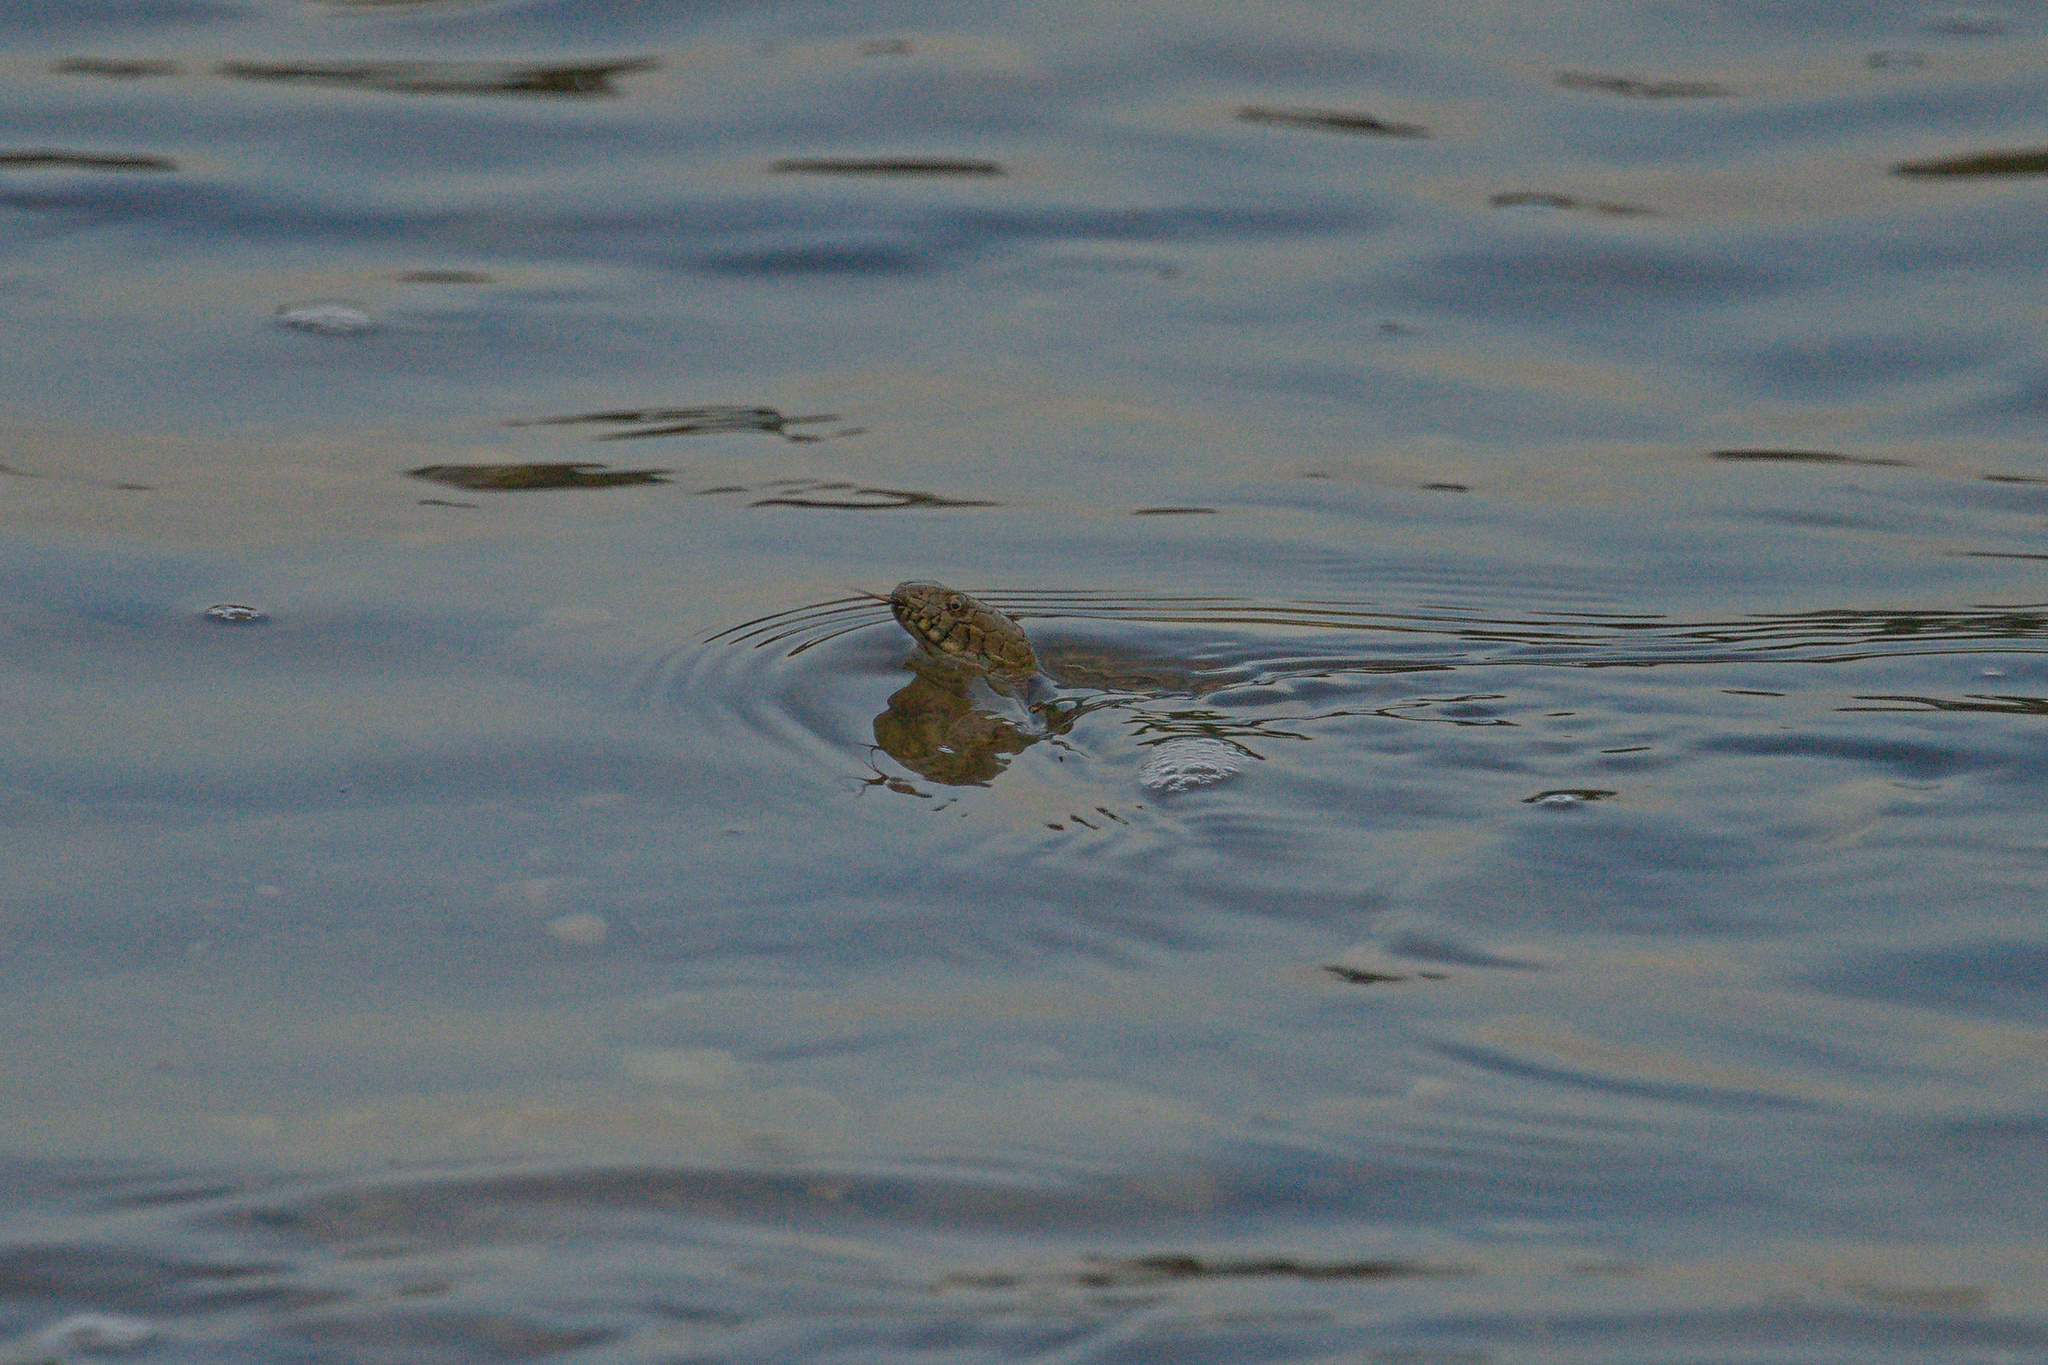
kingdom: Animalia
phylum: Chordata
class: Squamata
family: Colubridae
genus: Natrix
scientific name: Natrix tessellata
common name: Dice snake
